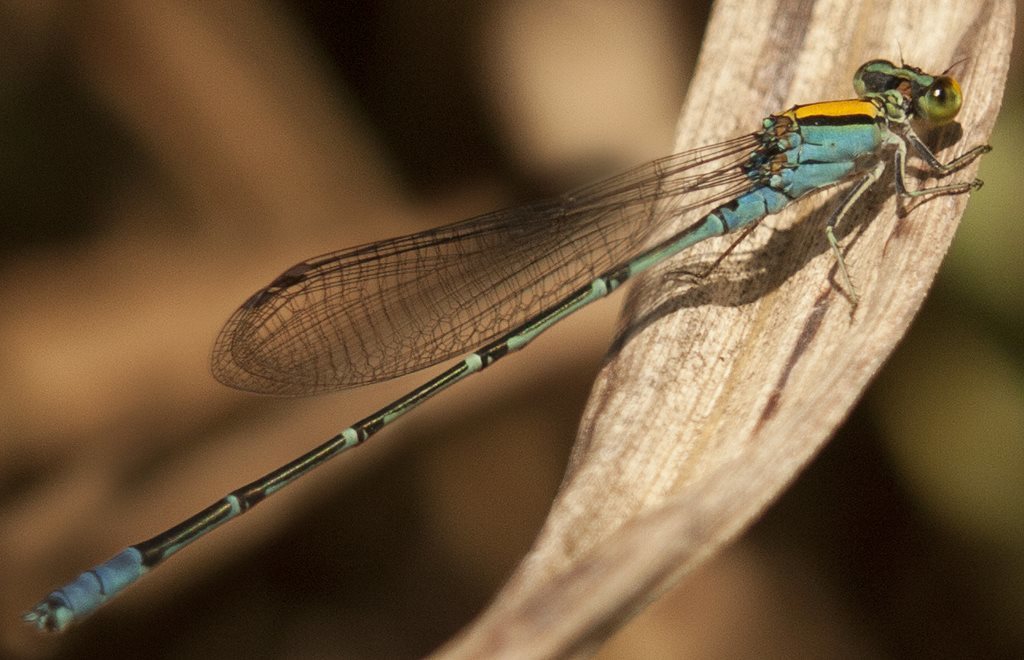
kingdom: Animalia
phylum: Arthropoda
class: Insecta
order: Odonata
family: Coenagrionidae
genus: Pseudagrion
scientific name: Pseudagrion aureofrons
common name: Gold-fronted riverdamsel
